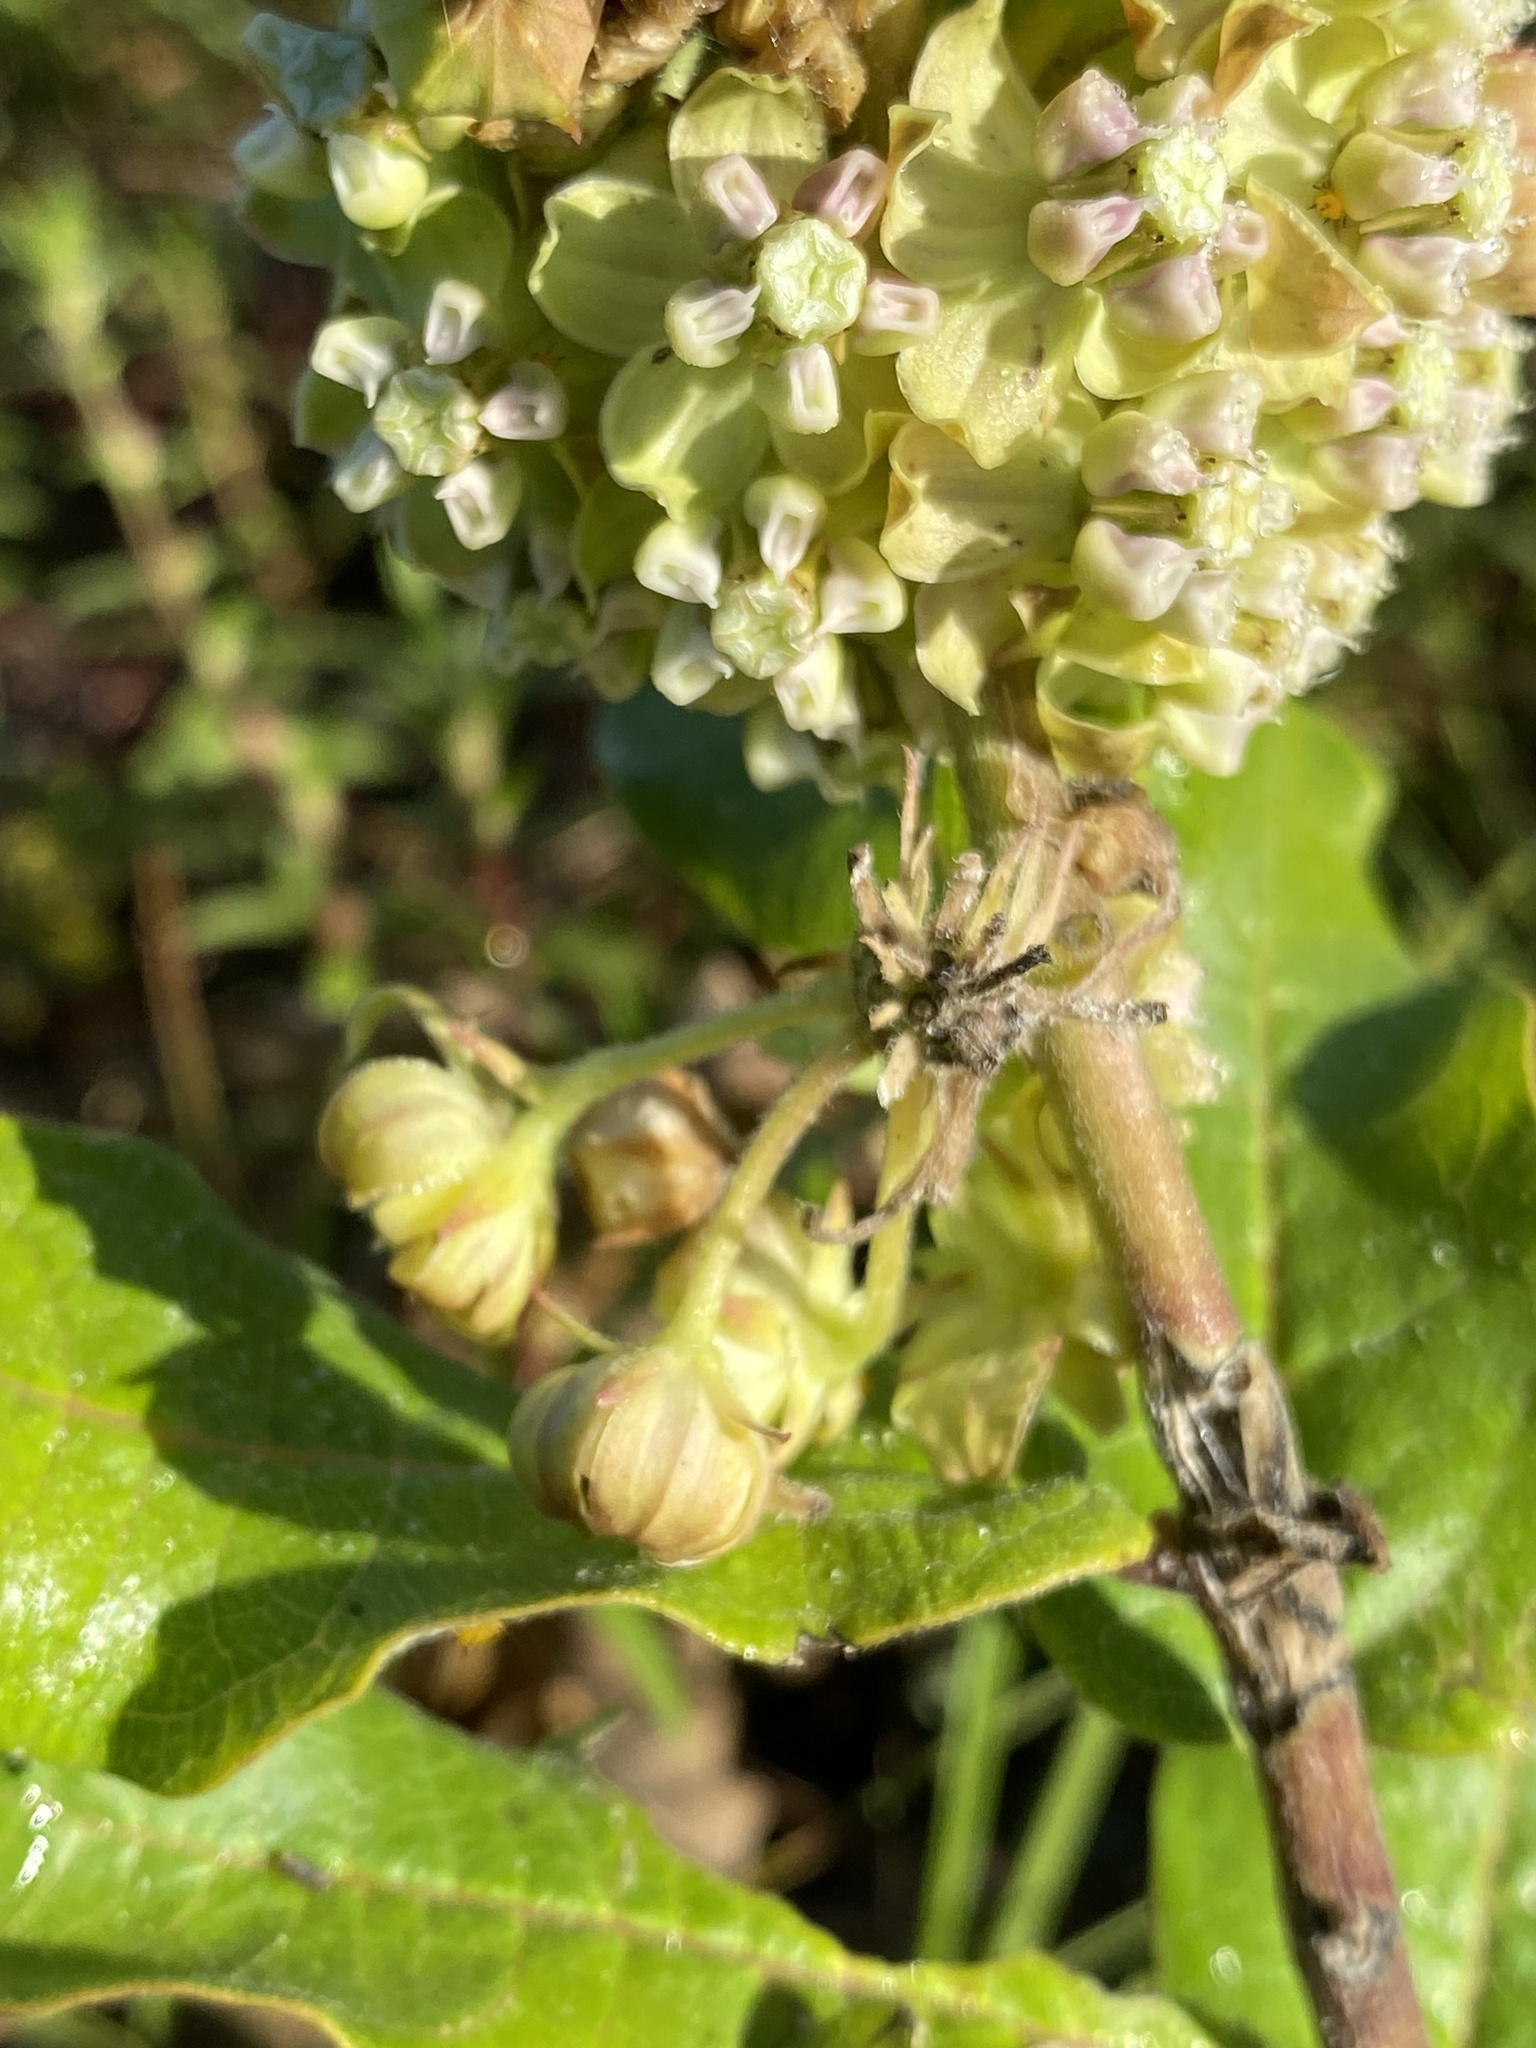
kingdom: Plantae
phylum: Tracheophyta
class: Magnoliopsida
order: Gentianales
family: Apocynaceae
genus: Asclepias
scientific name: Asclepias tomentosa
